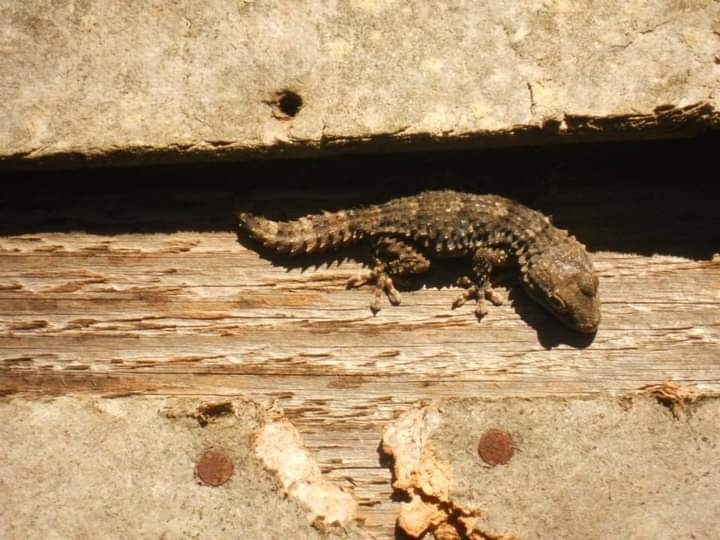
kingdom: Animalia
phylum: Chordata
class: Squamata
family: Phyllodactylidae
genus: Tarentola
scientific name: Tarentola mauritanica
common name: Moorish gecko
